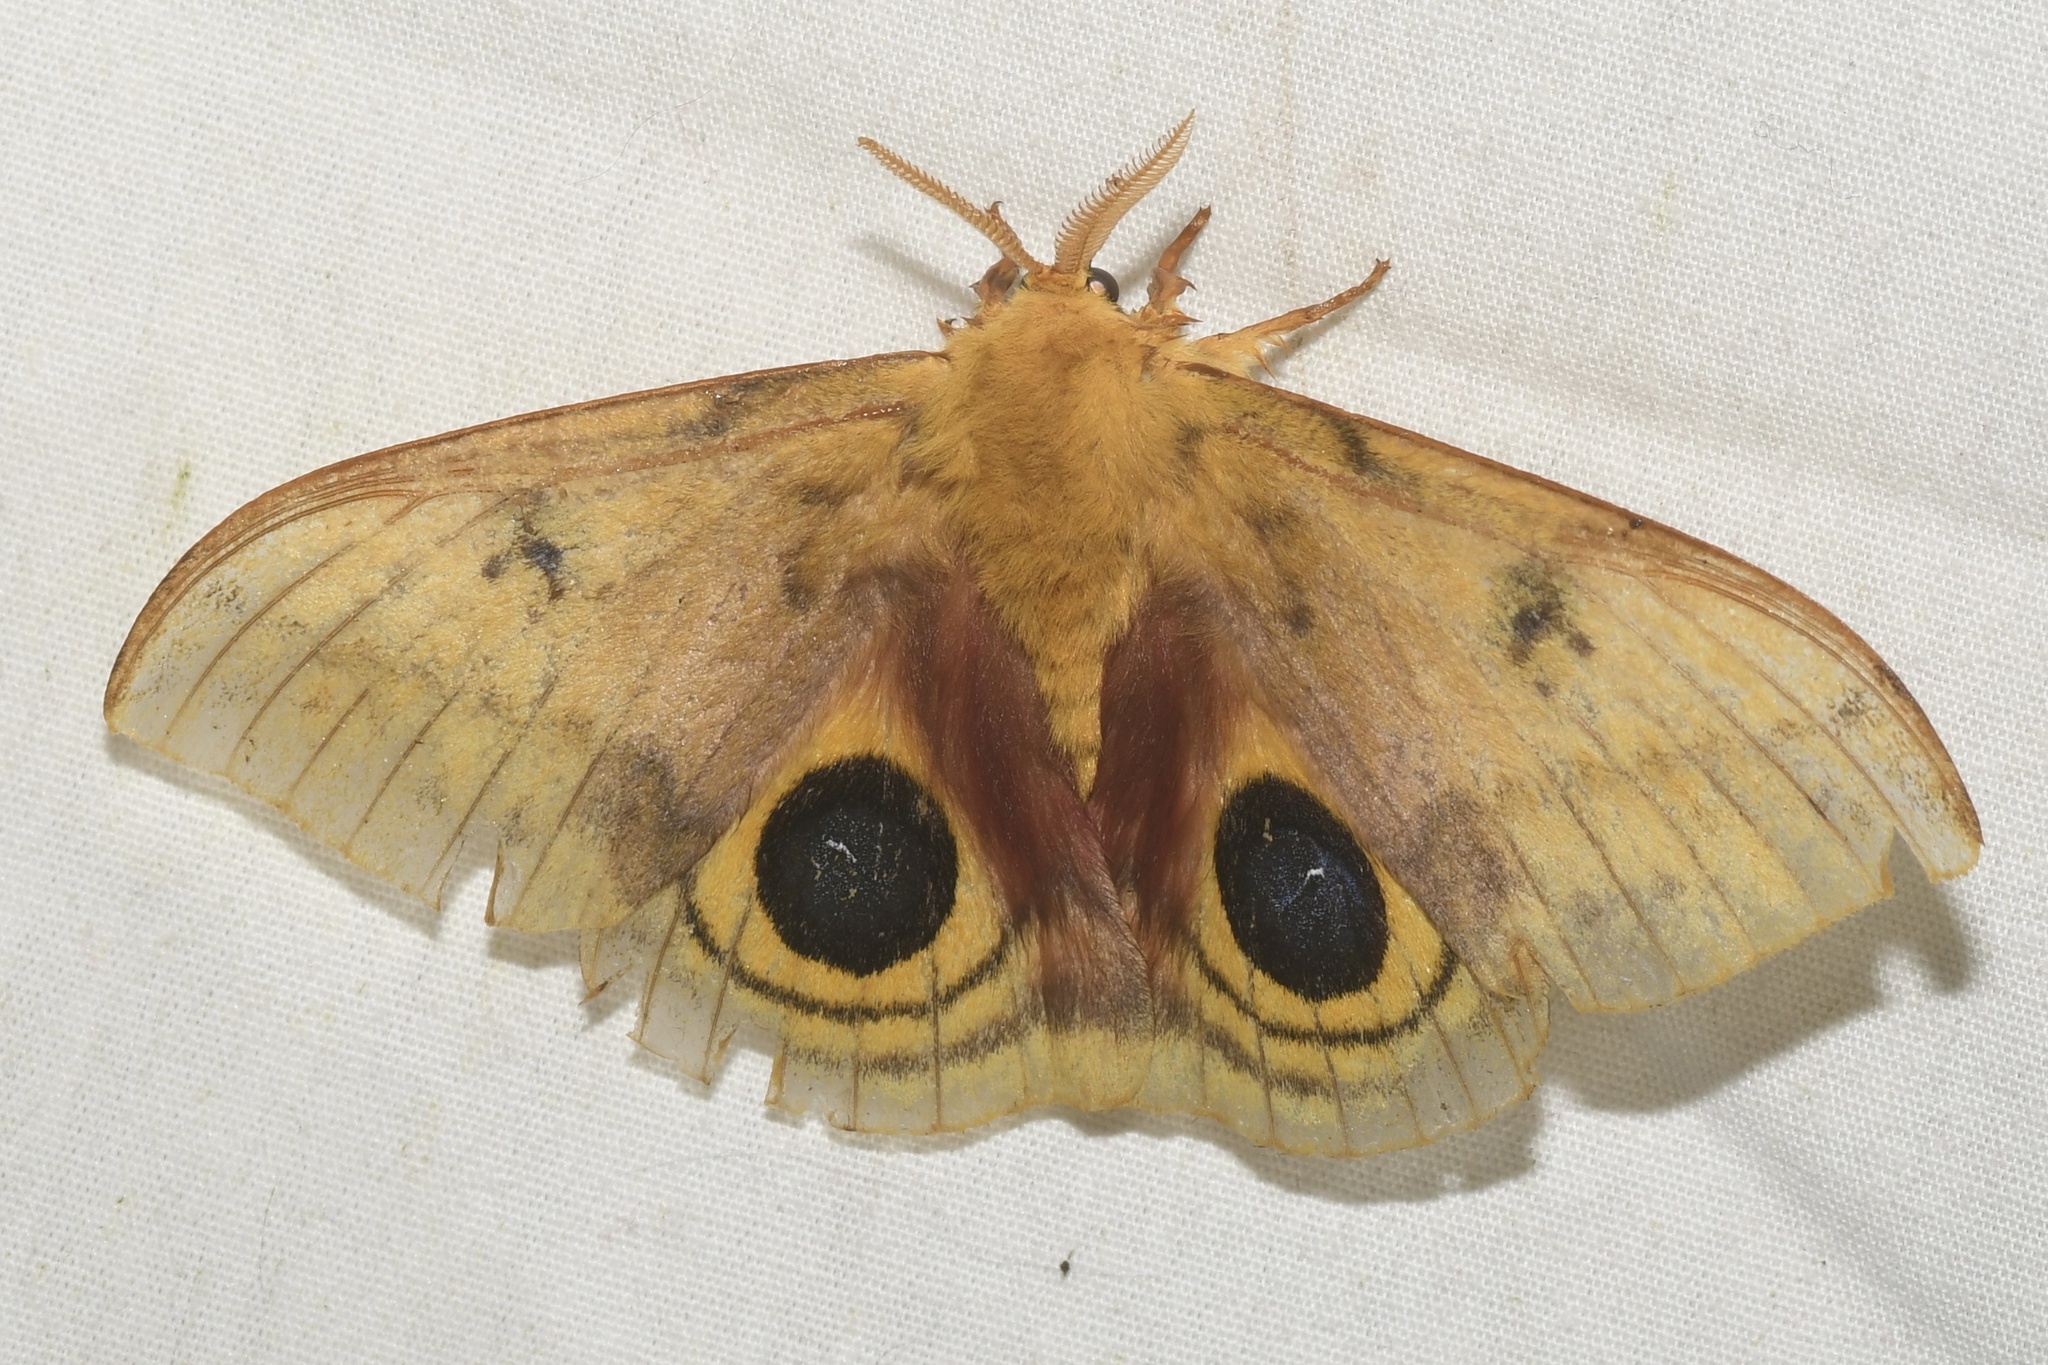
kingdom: Animalia
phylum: Arthropoda
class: Insecta
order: Lepidoptera
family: Saturniidae
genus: Automeris
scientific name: Automeris io
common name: Io moth
